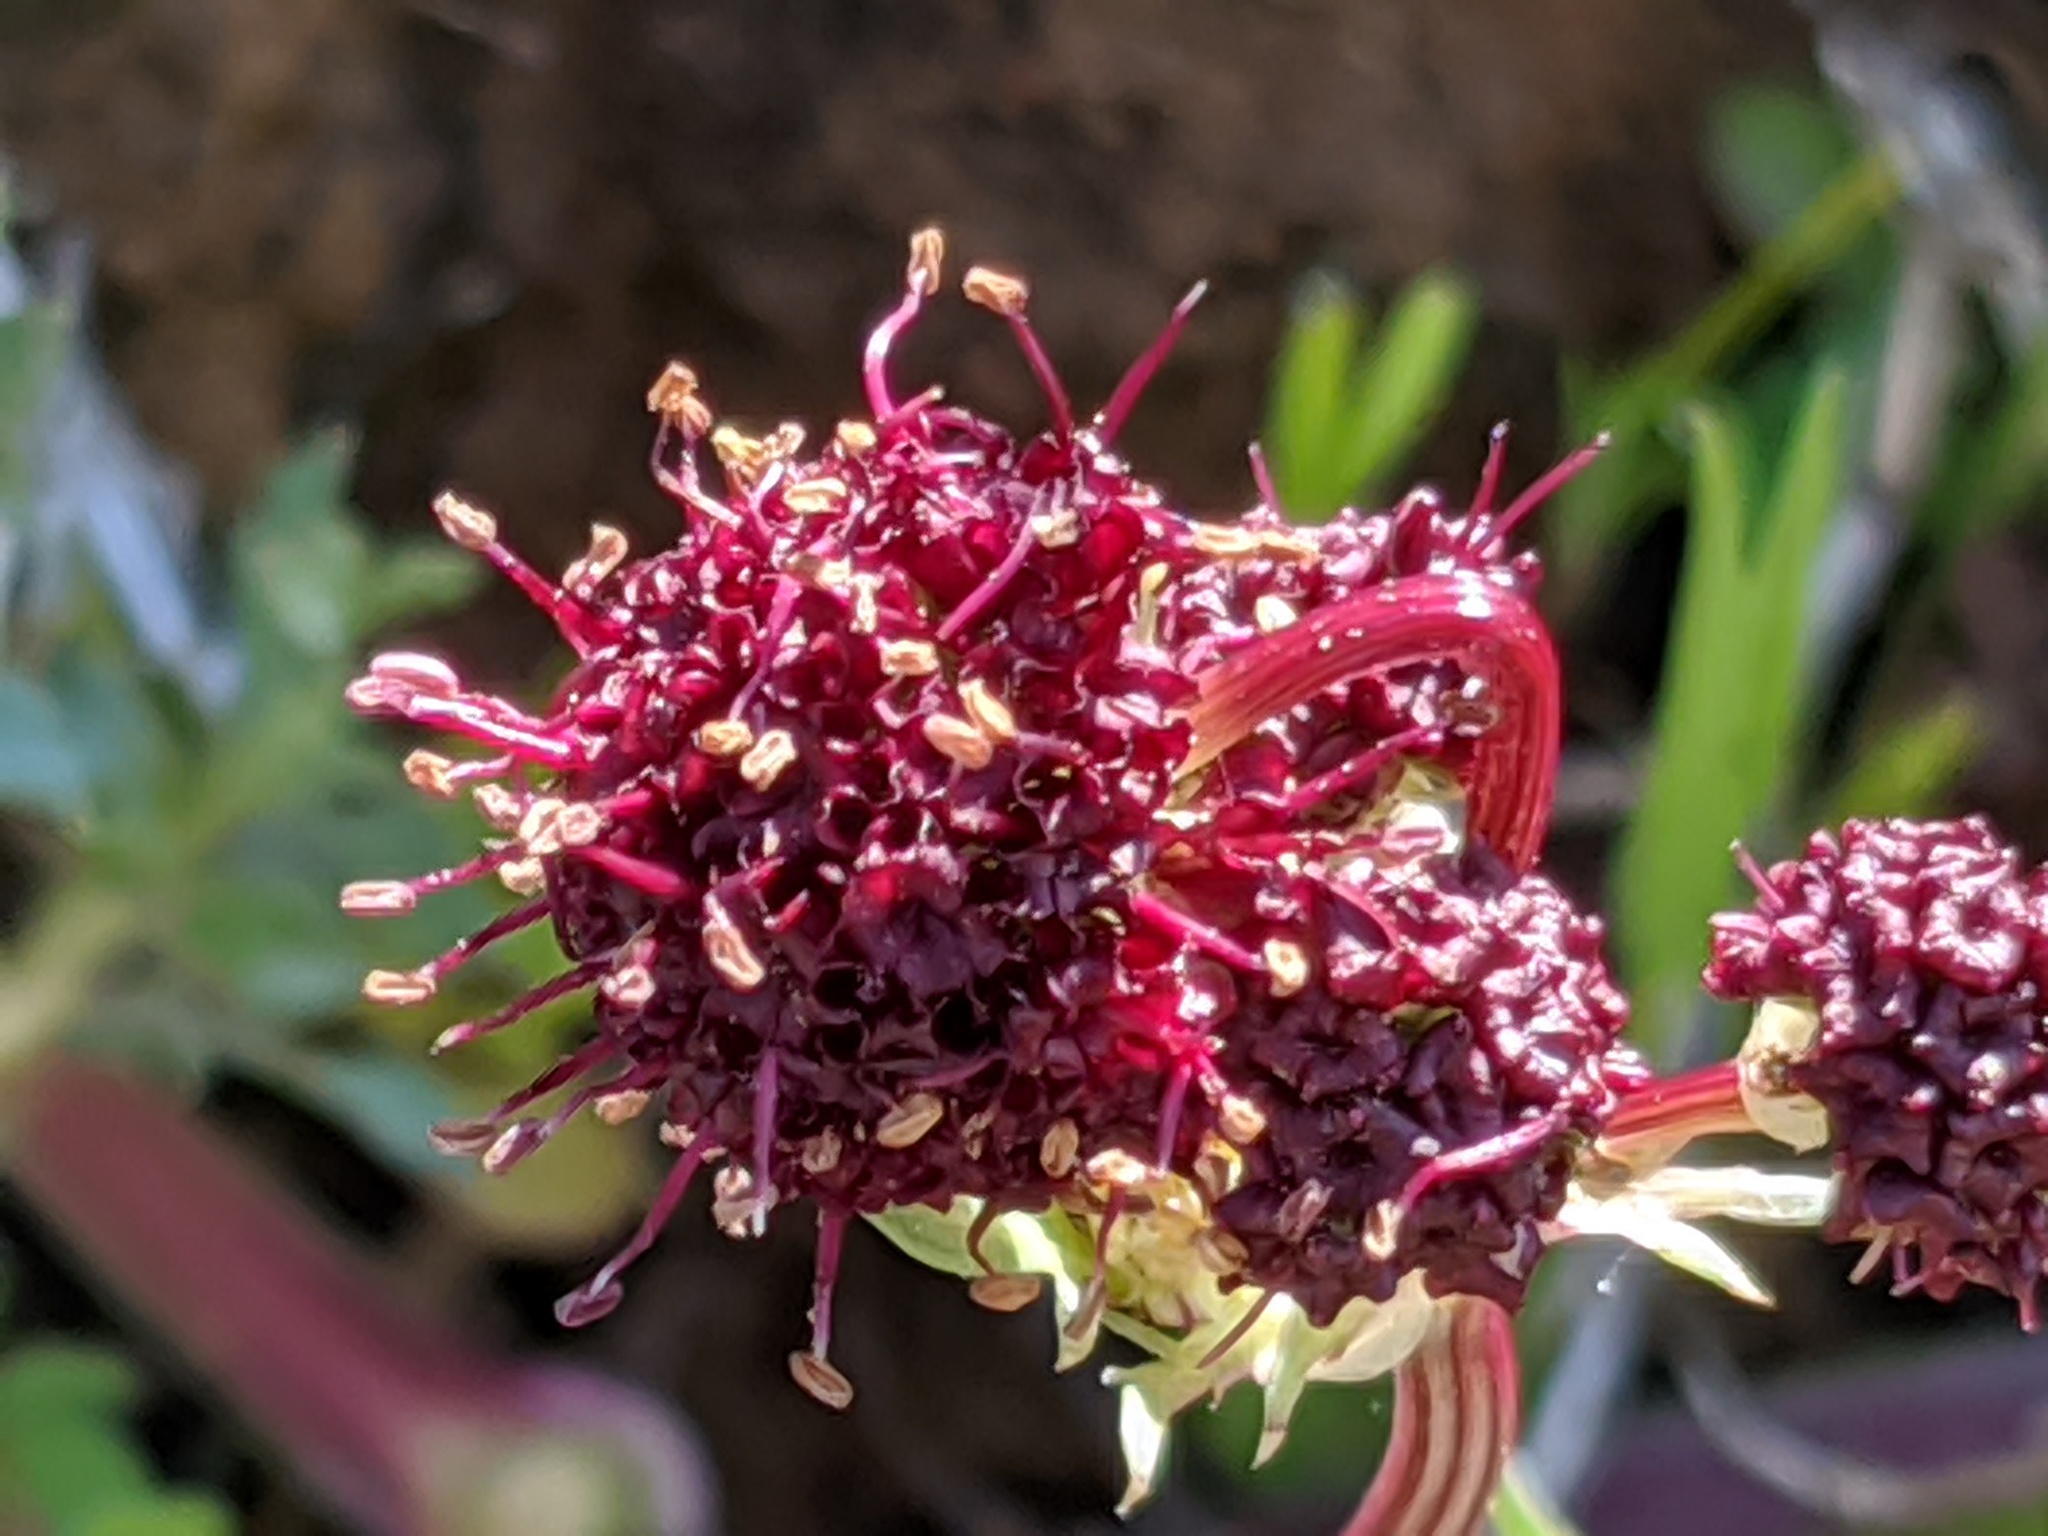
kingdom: Plantae
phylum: Tracheophyta
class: Magnoliopsida
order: Apiales
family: Apiaceae
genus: Sanicula
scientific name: Sanicula bipinnatifida
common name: Shoe-buttons
